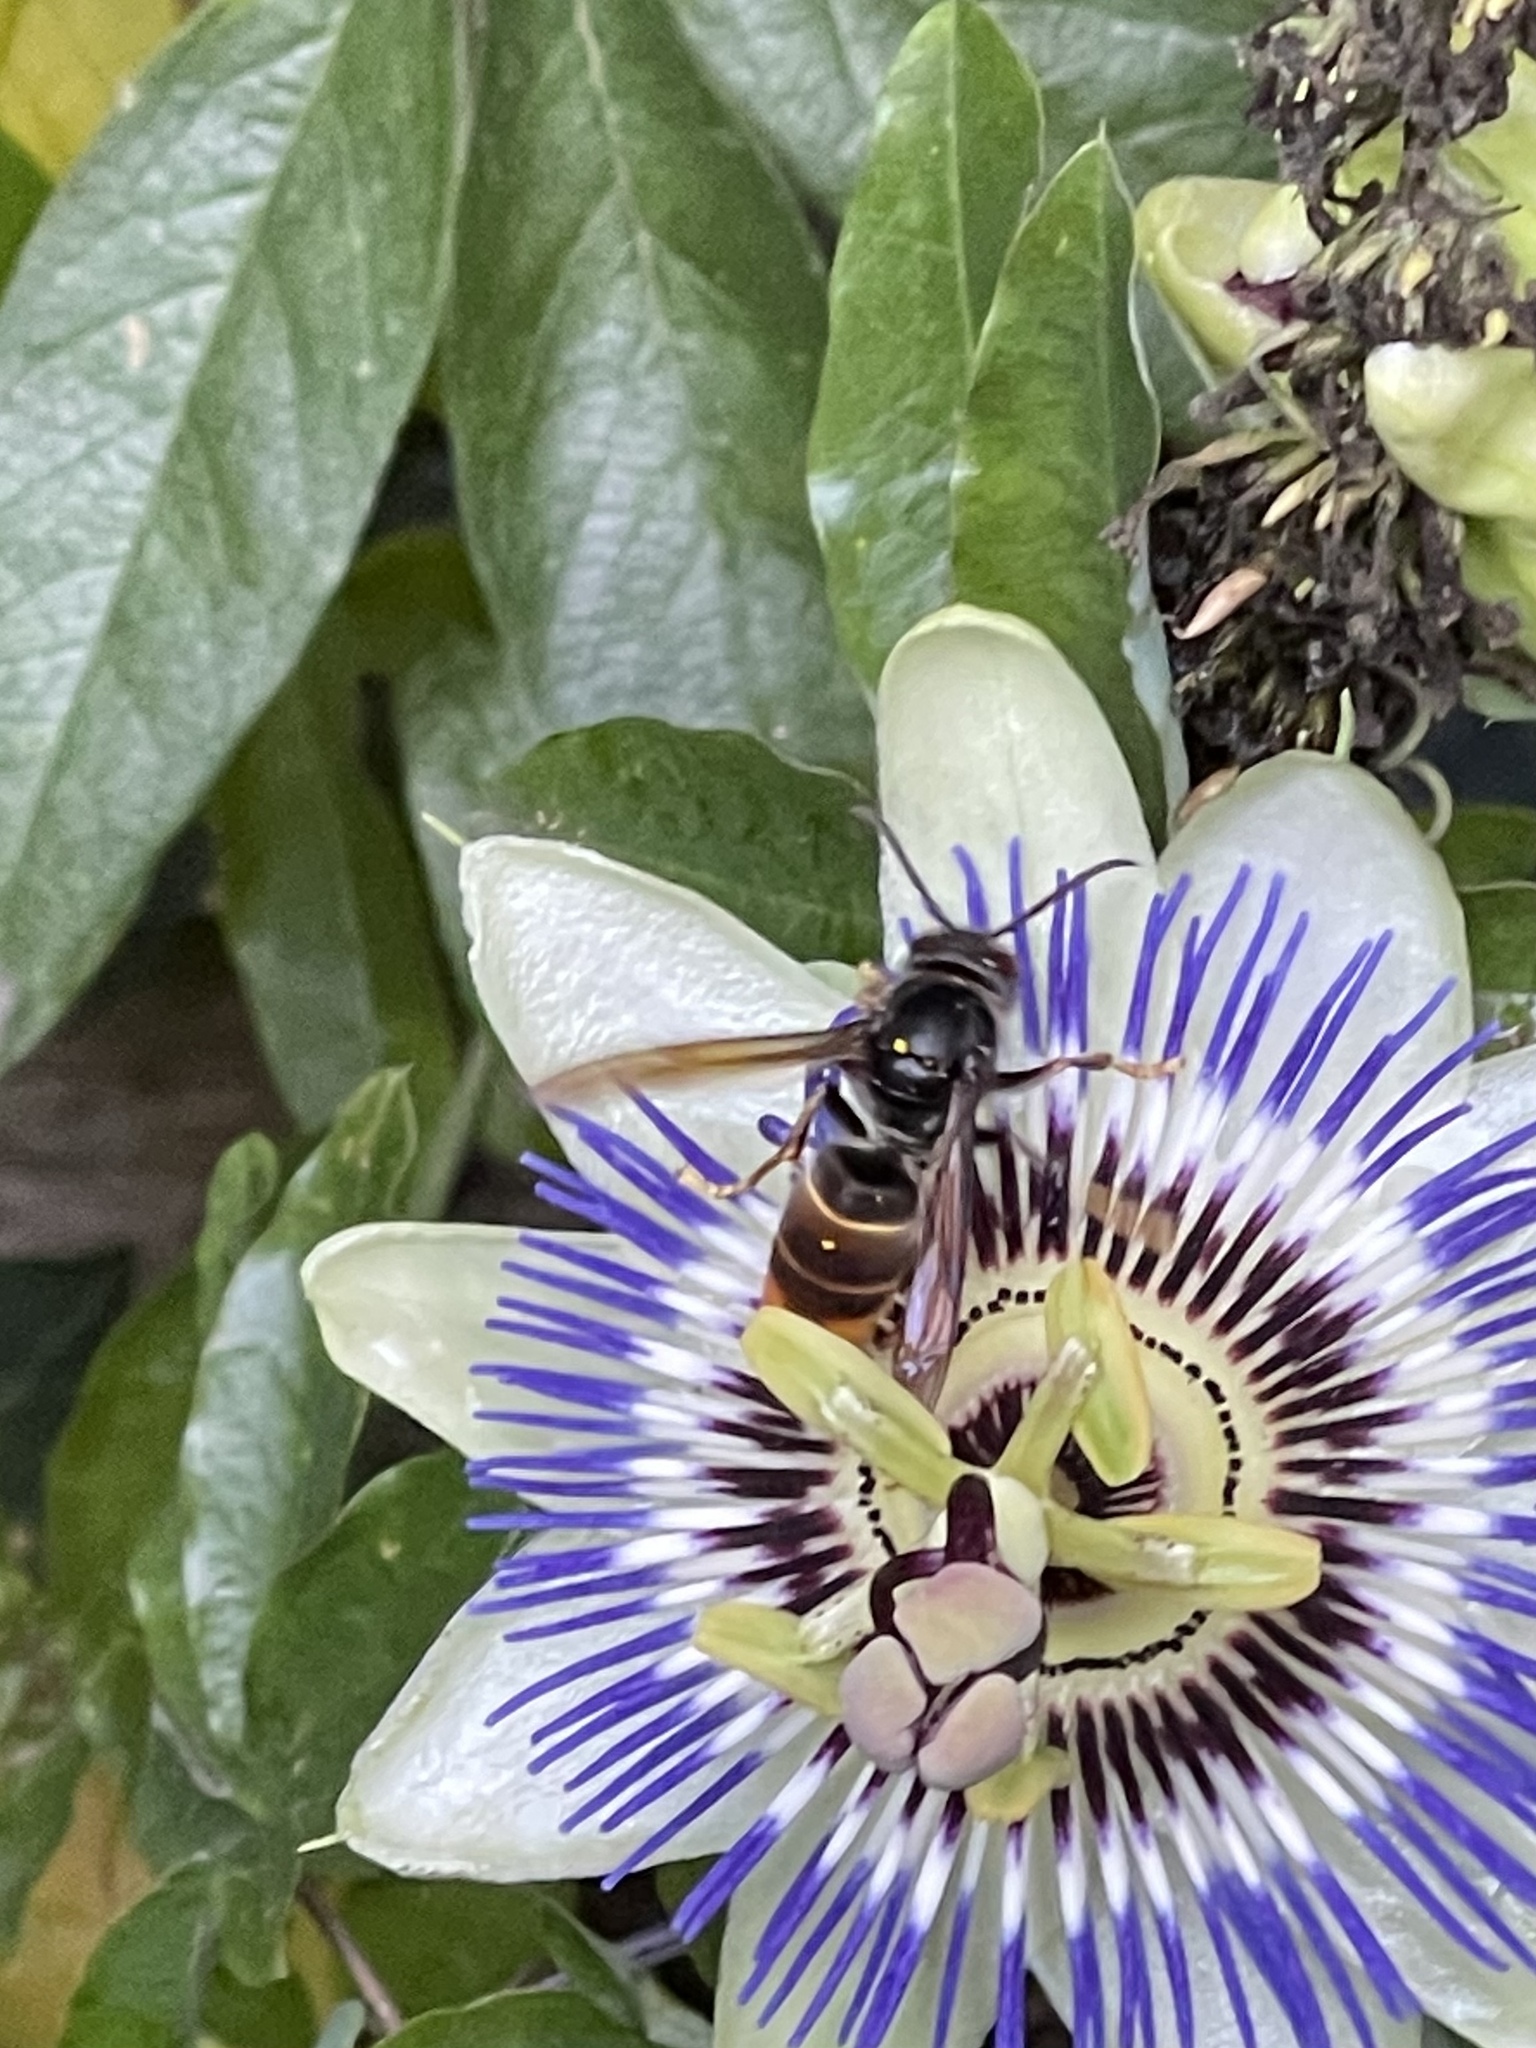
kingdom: Animalia
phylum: Arthropoda
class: Insecta
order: Hymenoptera
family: Vespidae
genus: Vespa
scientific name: Vespa velutina
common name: Asian hornet
